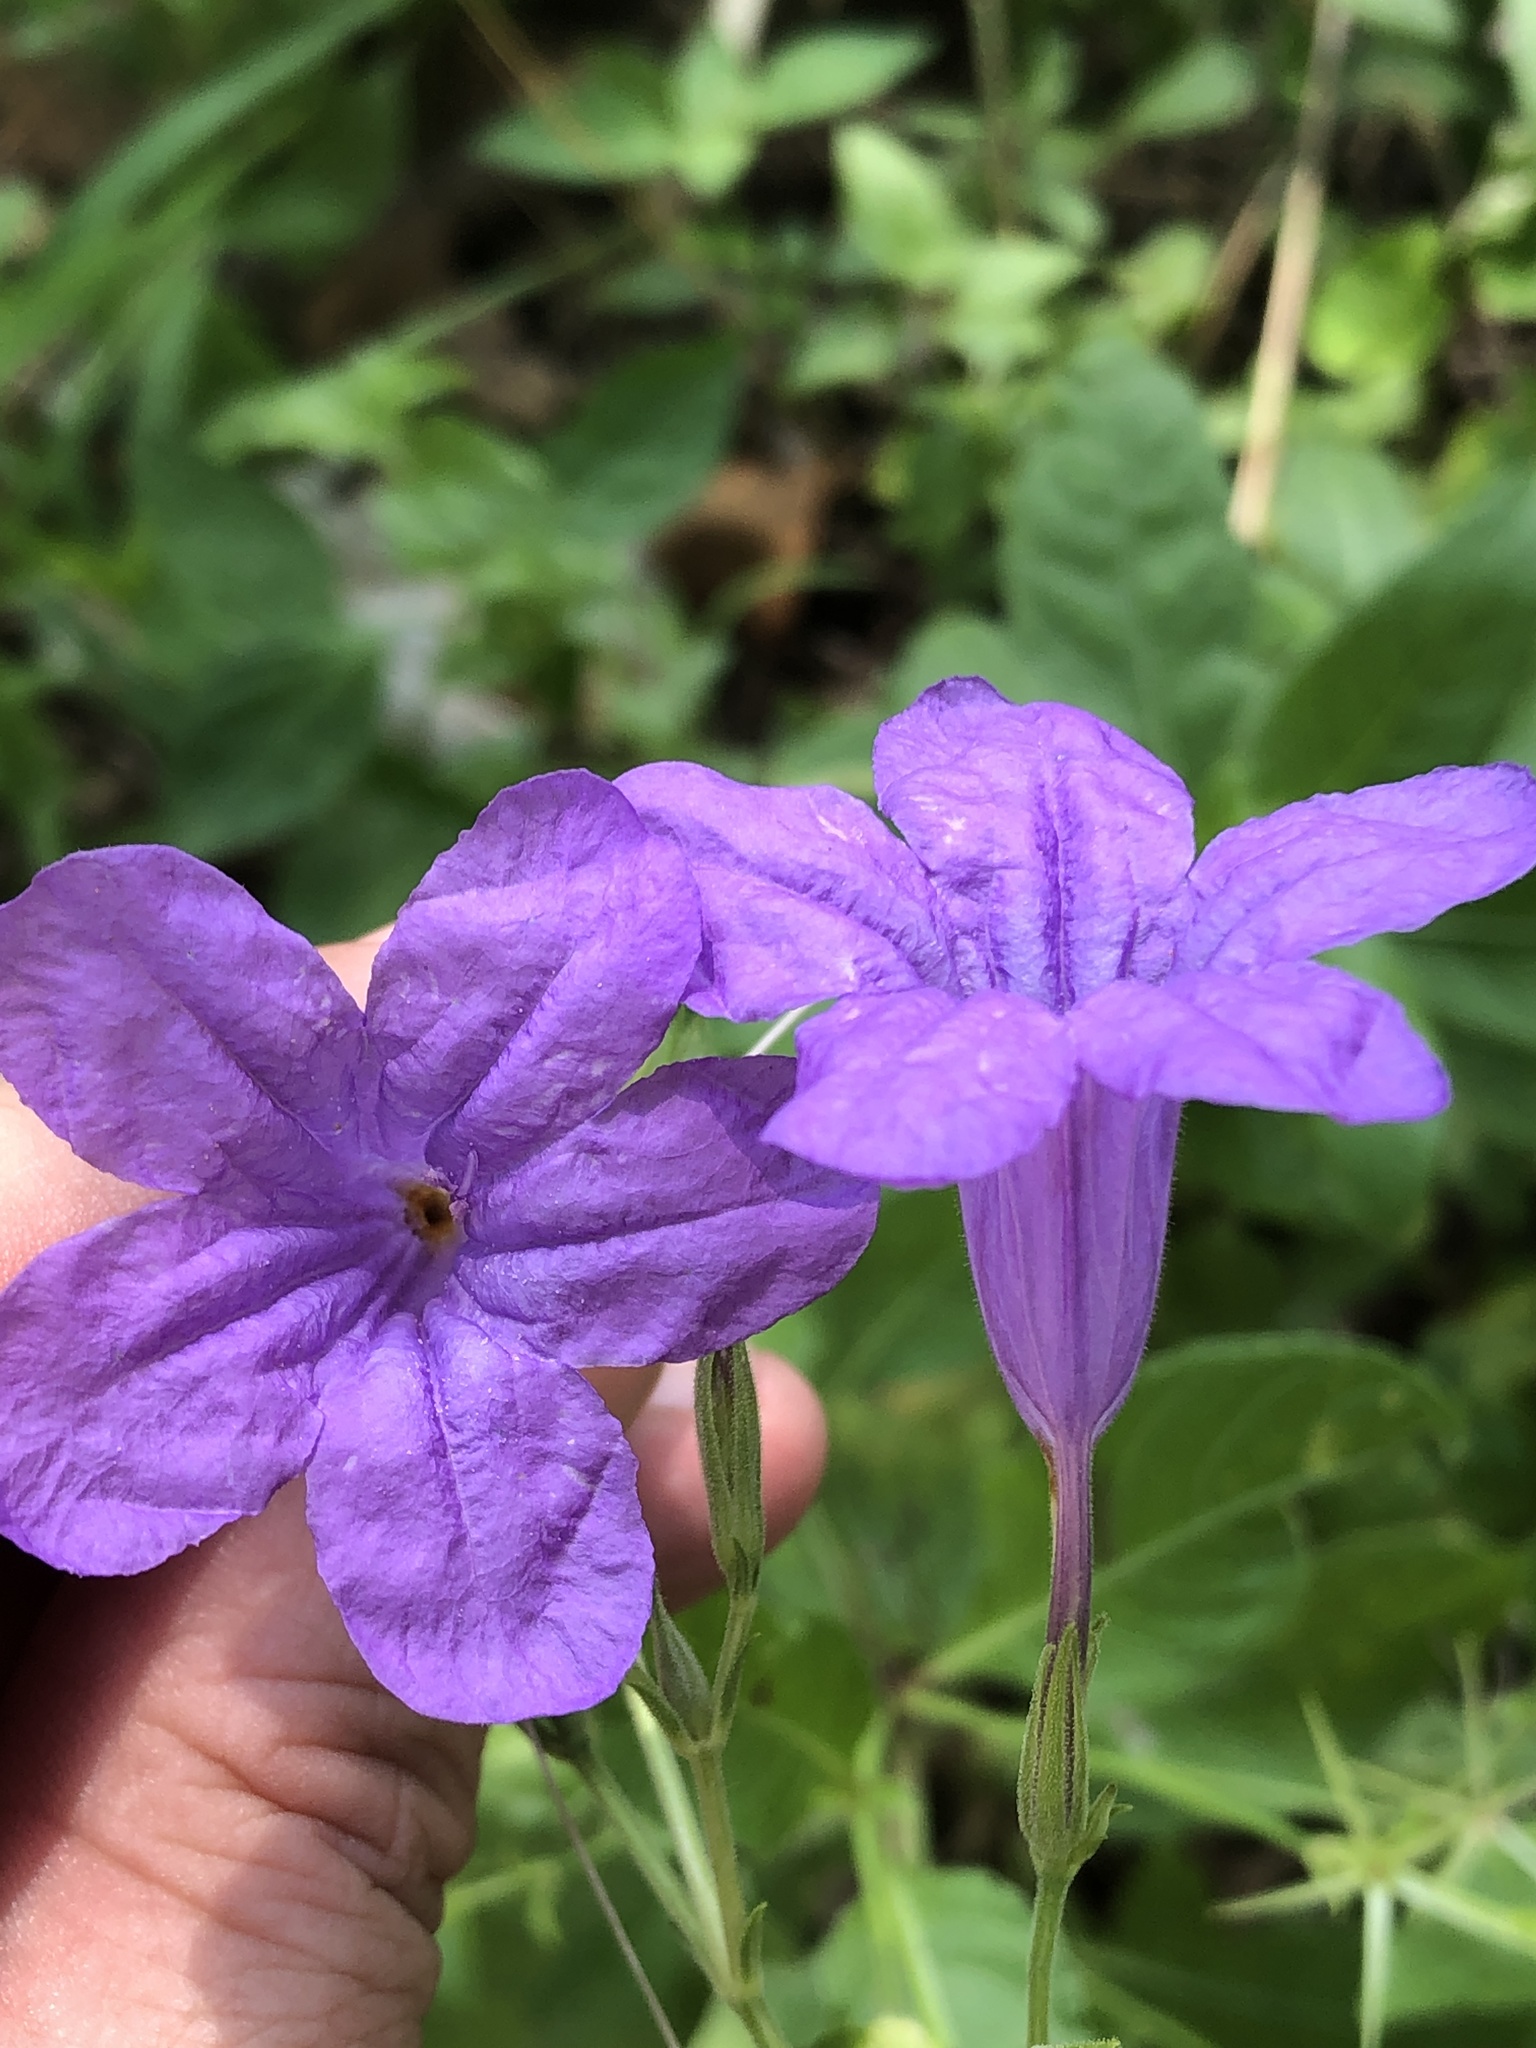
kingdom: Plantae
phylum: Tracheophyta
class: Magnoliopsida
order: Lamiales
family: Acanthaceae
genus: Ruellia
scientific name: Ruellia ciliatiflora
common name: Hairyflower wild petunia
